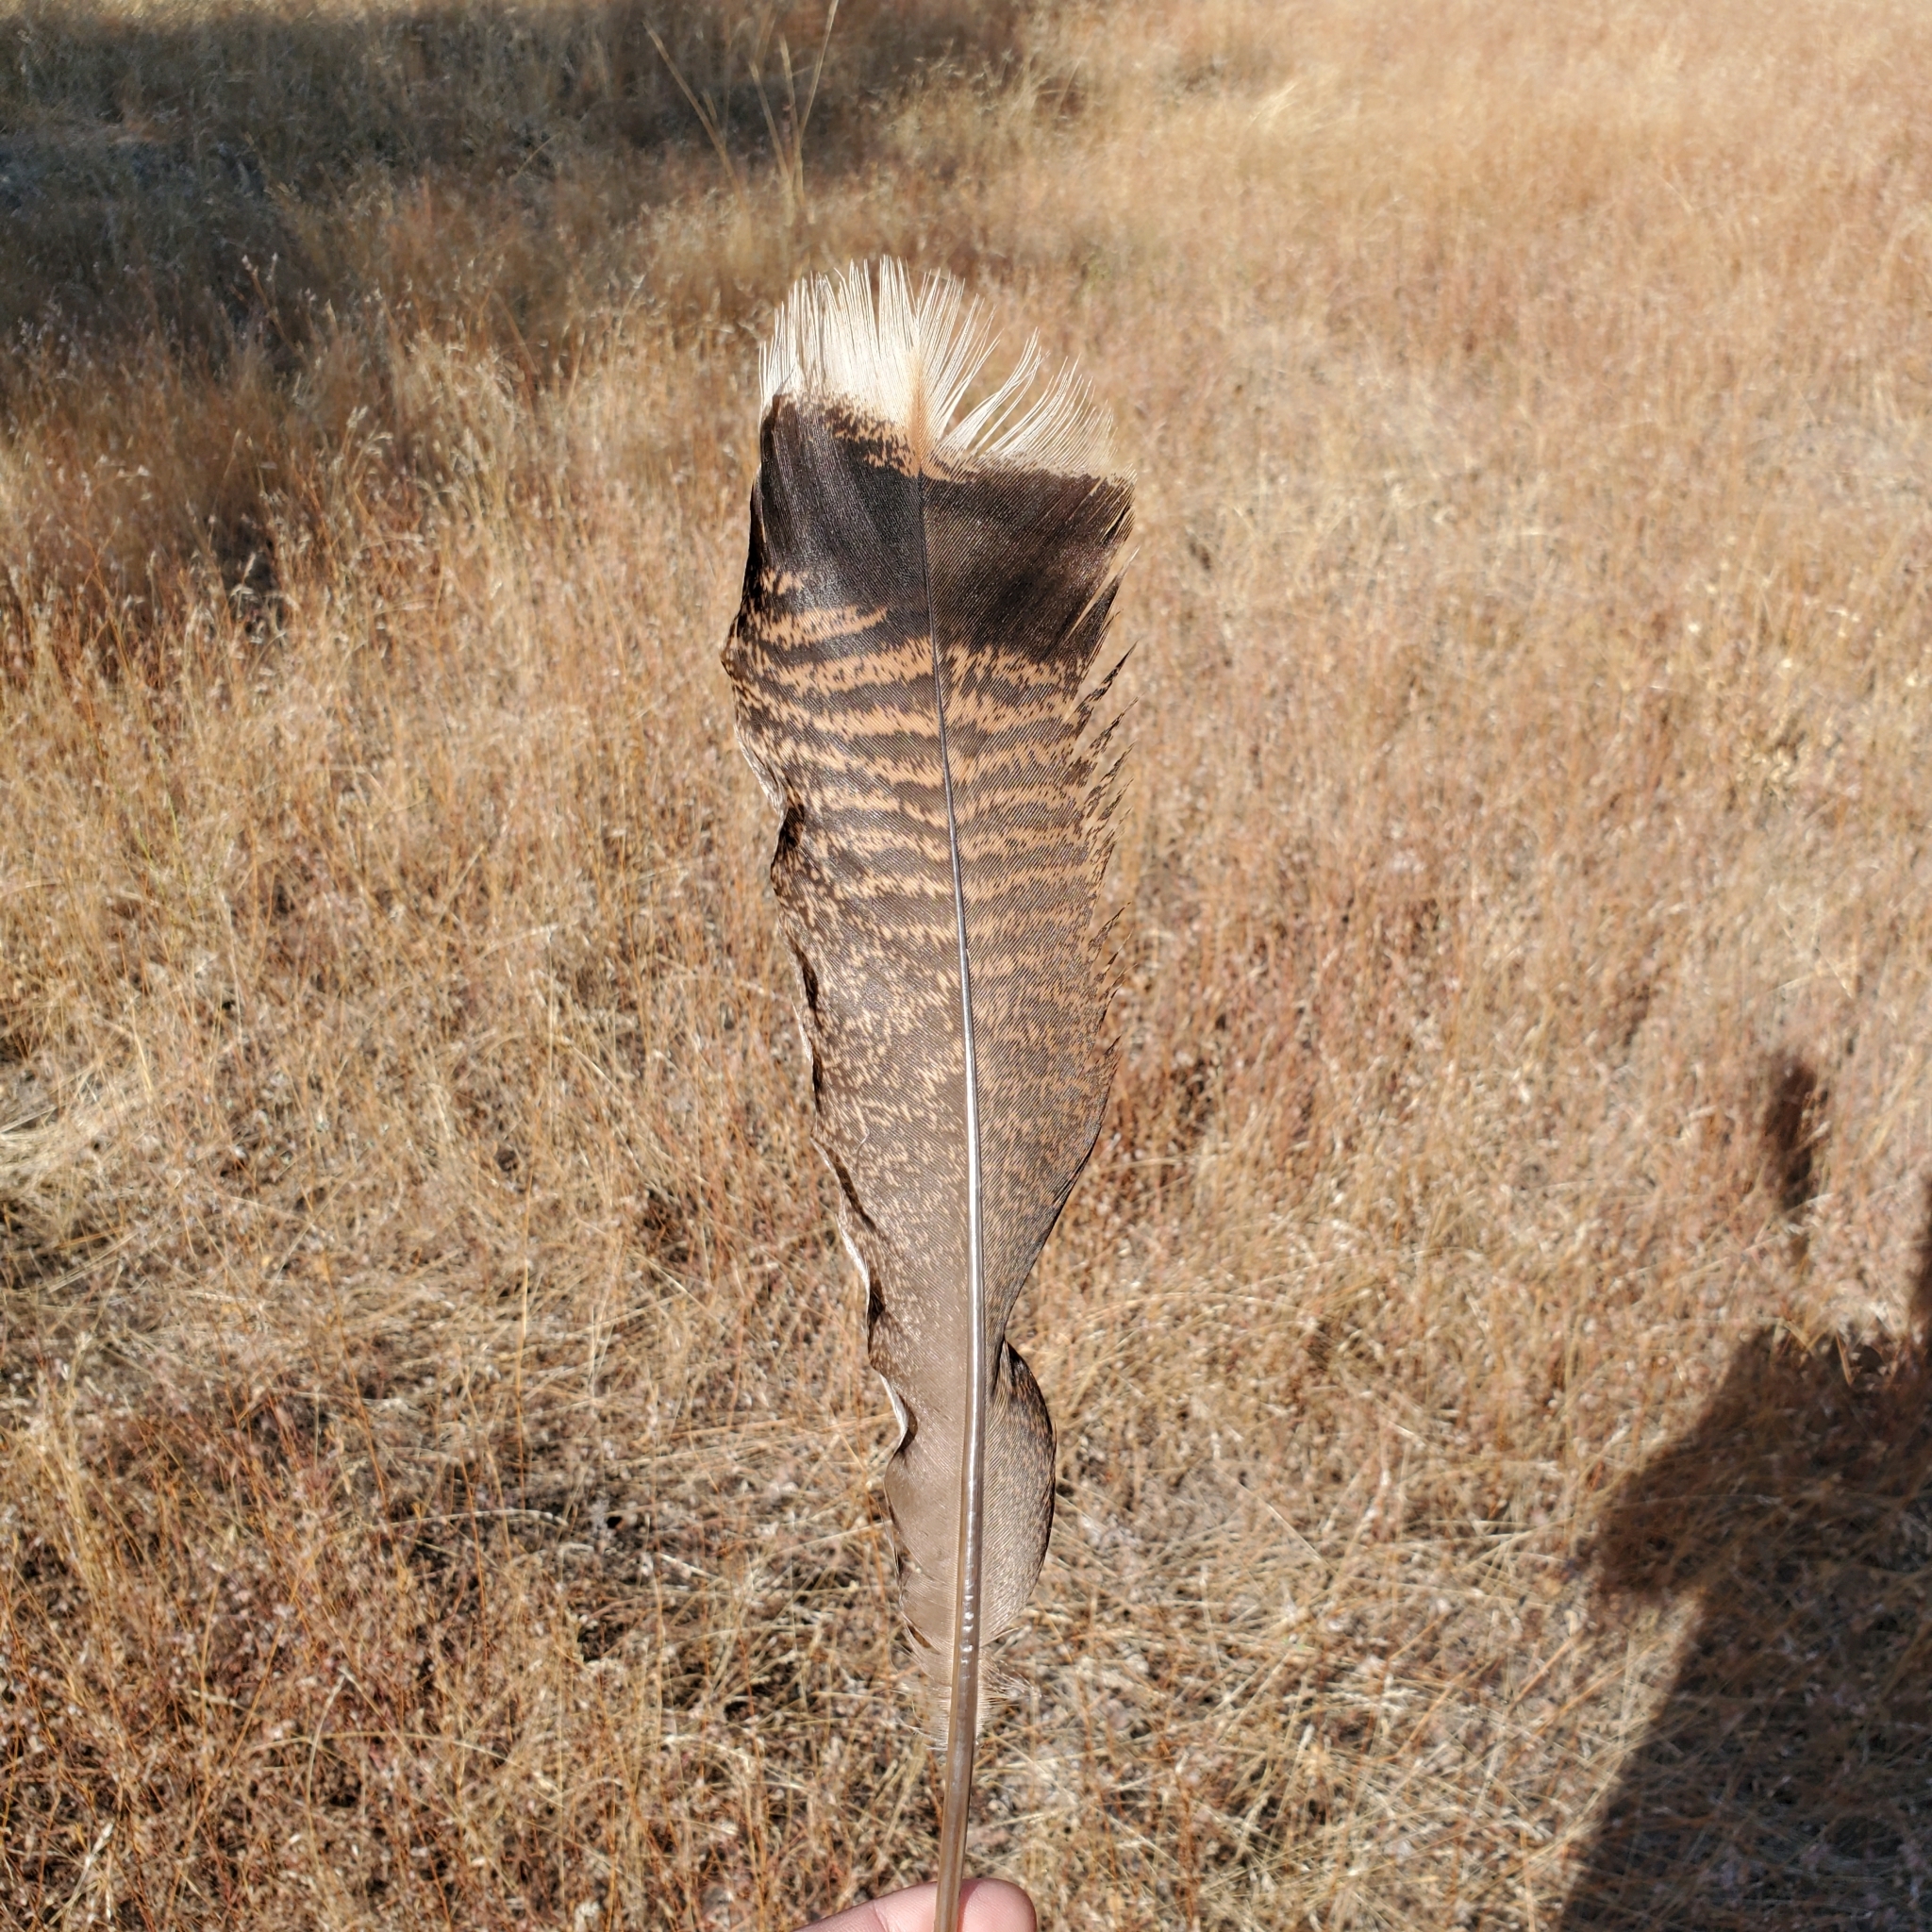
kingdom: Animalia
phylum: Chordata
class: Aves
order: Galliformes
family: Phasianidae
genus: Meleagris
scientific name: Meleagris gallopavo
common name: Wild turkey
